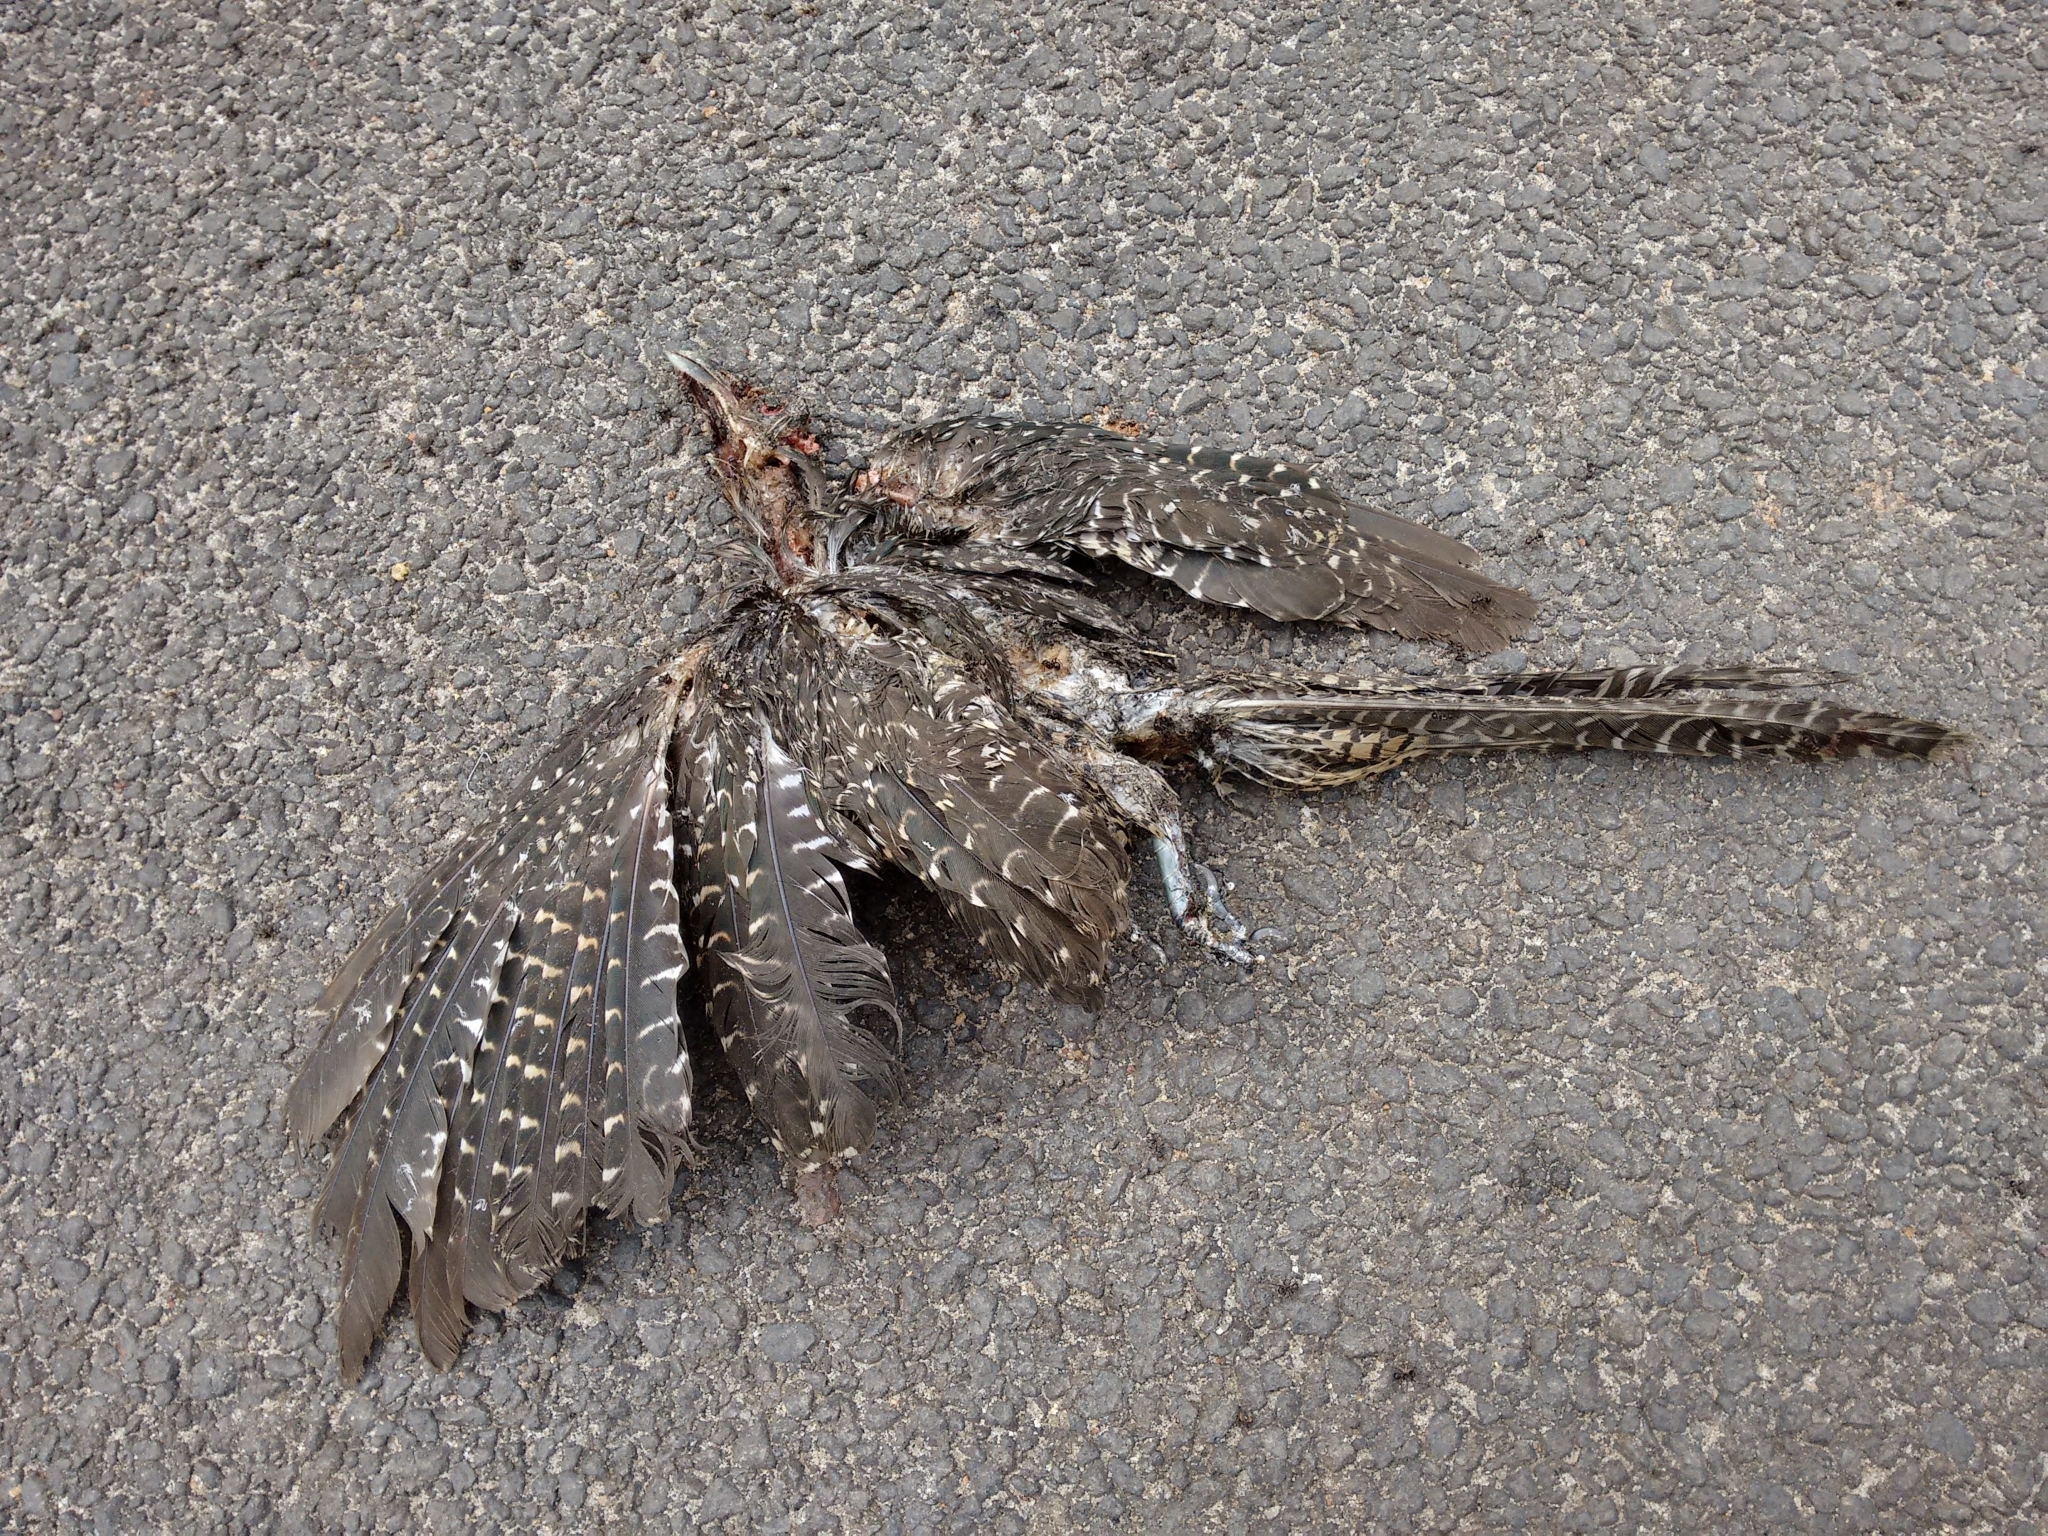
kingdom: Animalia
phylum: Chordata
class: Aves
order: Cuculiformes
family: Cuculidae
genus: Eudynamys
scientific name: Eudynamys scolopaceus
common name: Asian koel
